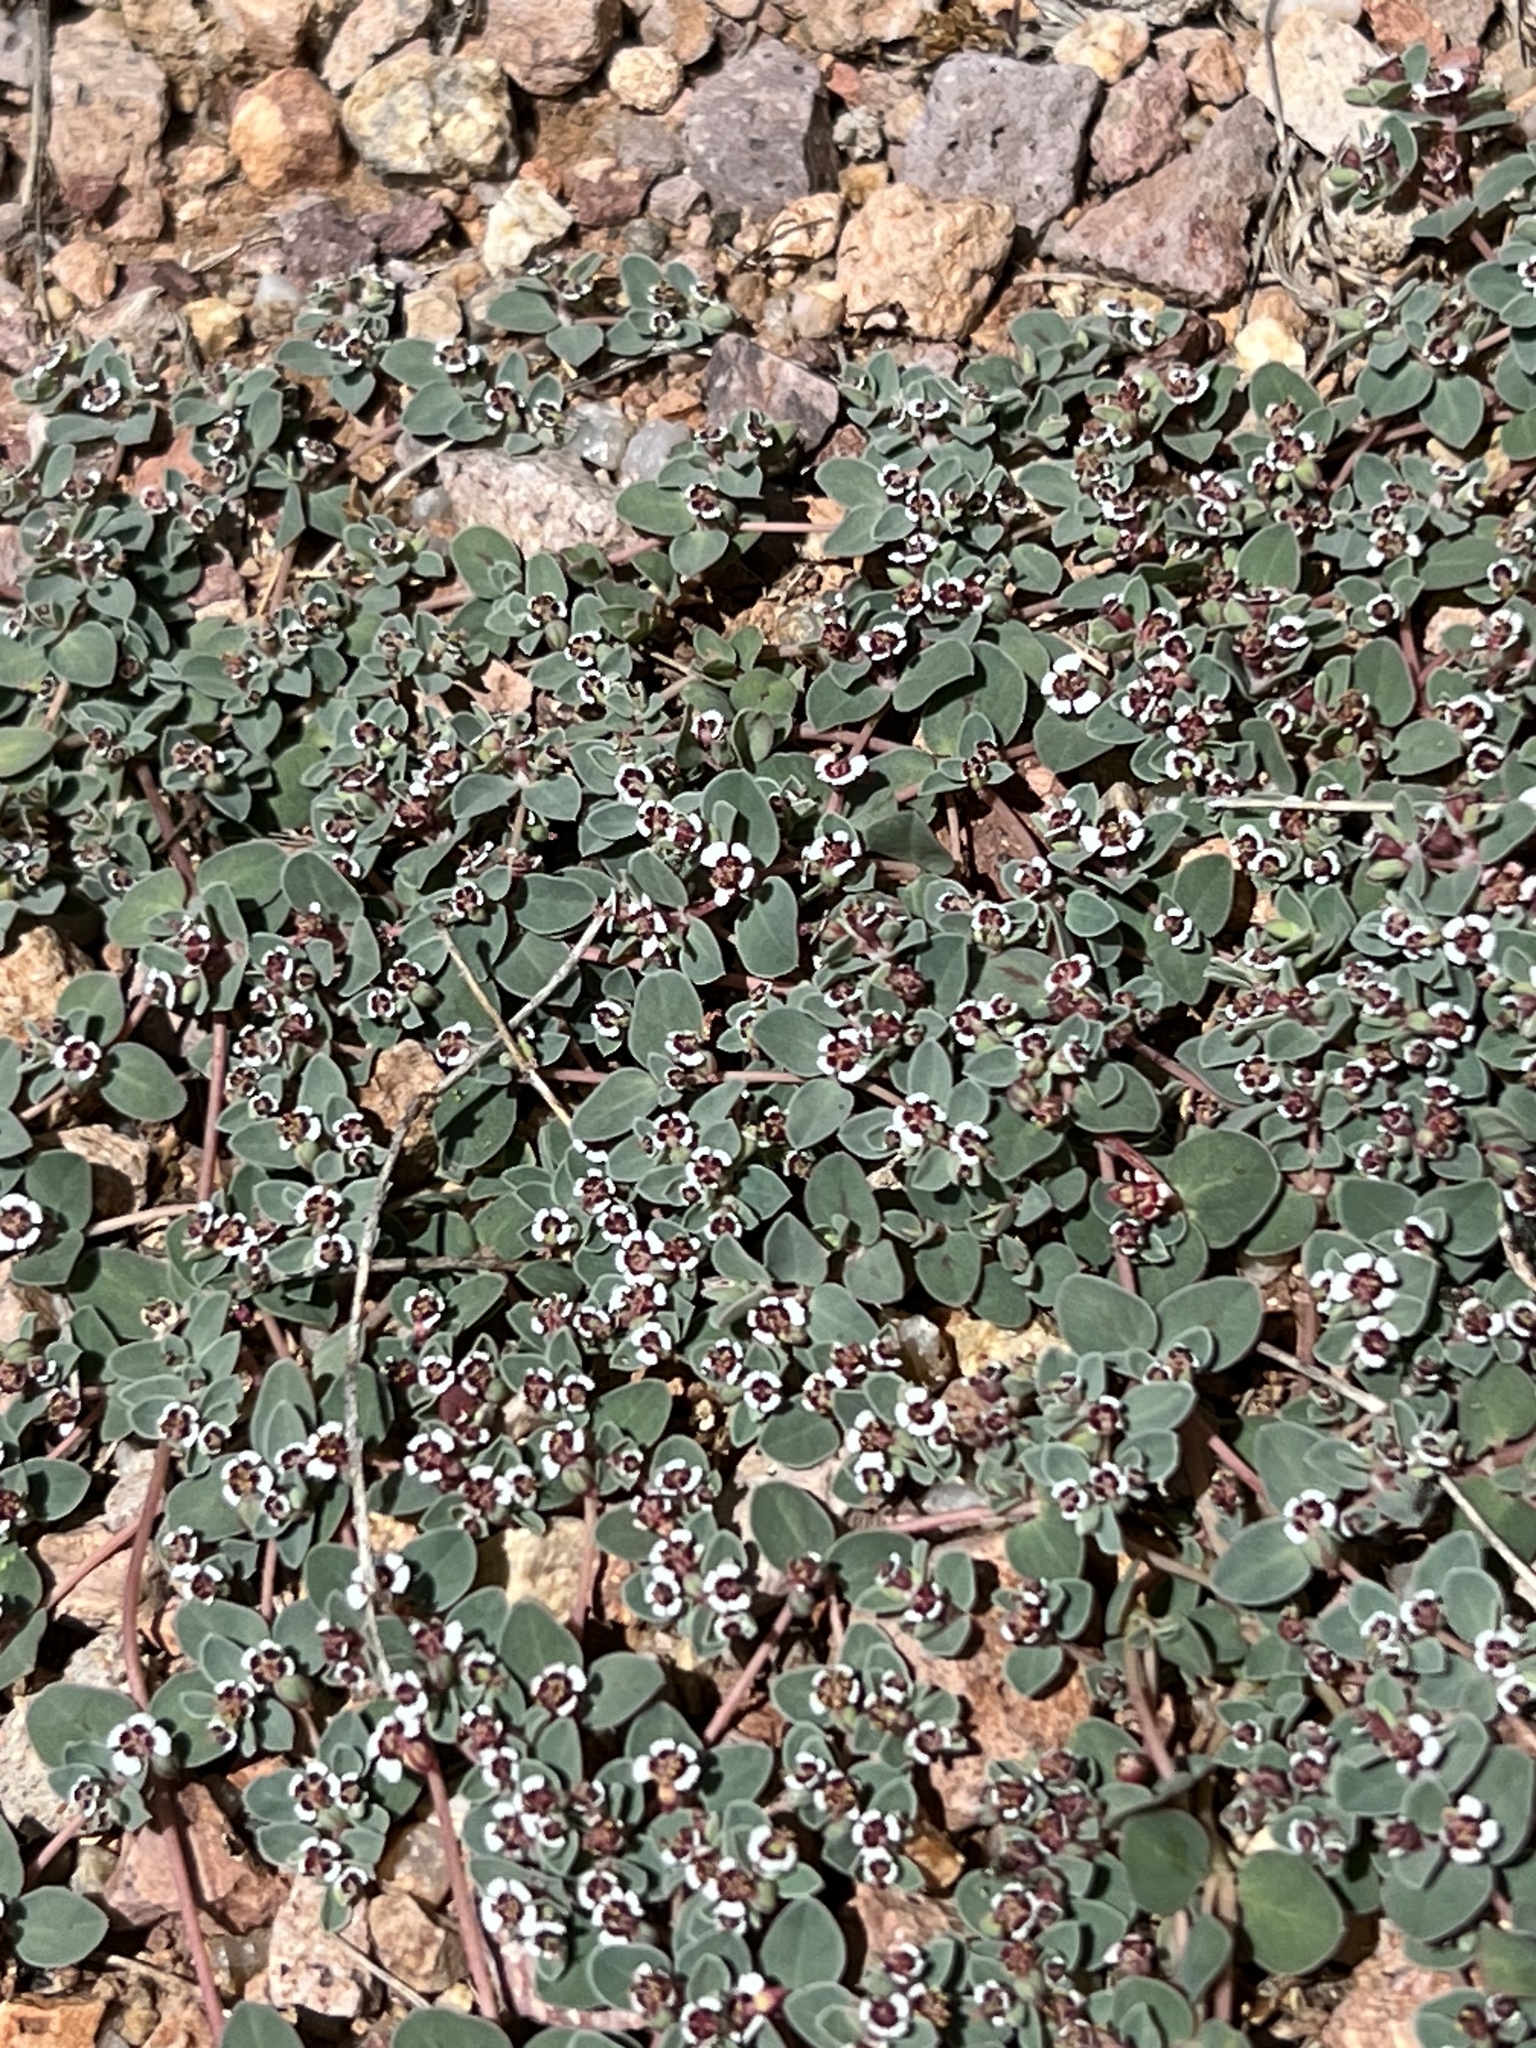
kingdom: Plantae
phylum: Tracheophyta
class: Magnoliopsida
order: Malpighiales
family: Euphorbiaceae
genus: Euphorbia
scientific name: Euphorbia albomarginata
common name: Whitemargin sandmat
